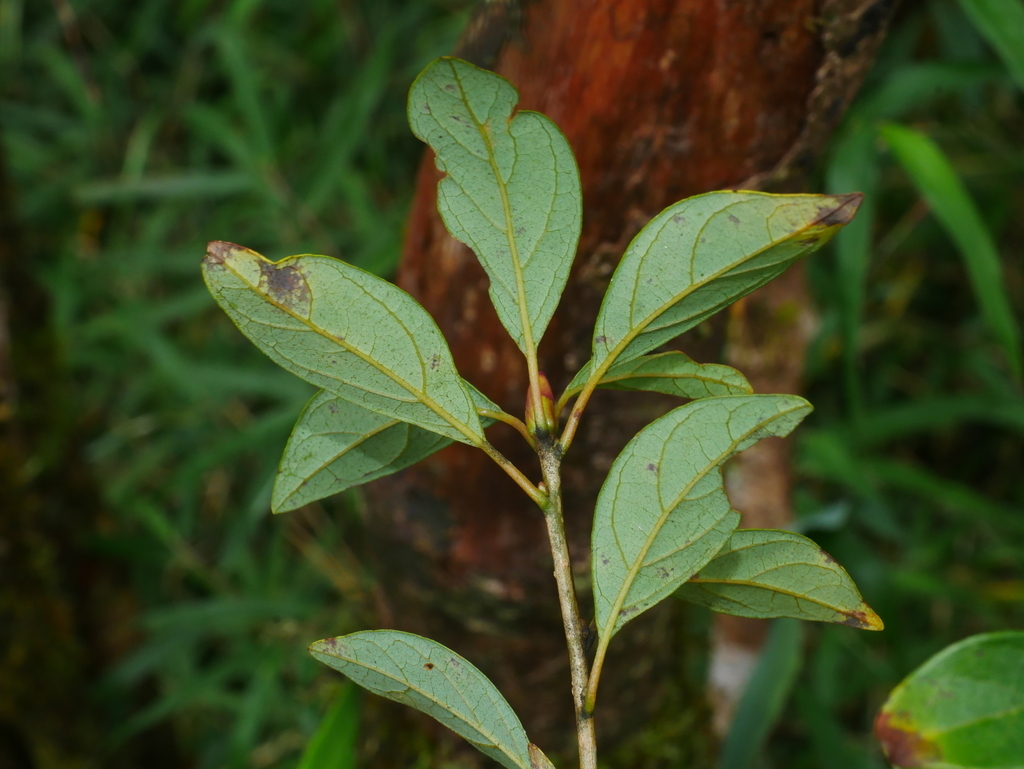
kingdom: Plantae
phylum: Tracheophyta
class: Magnoliopsida
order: Laurales
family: Lauraceae
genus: Lindera
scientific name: Lindera erythrocarpa
